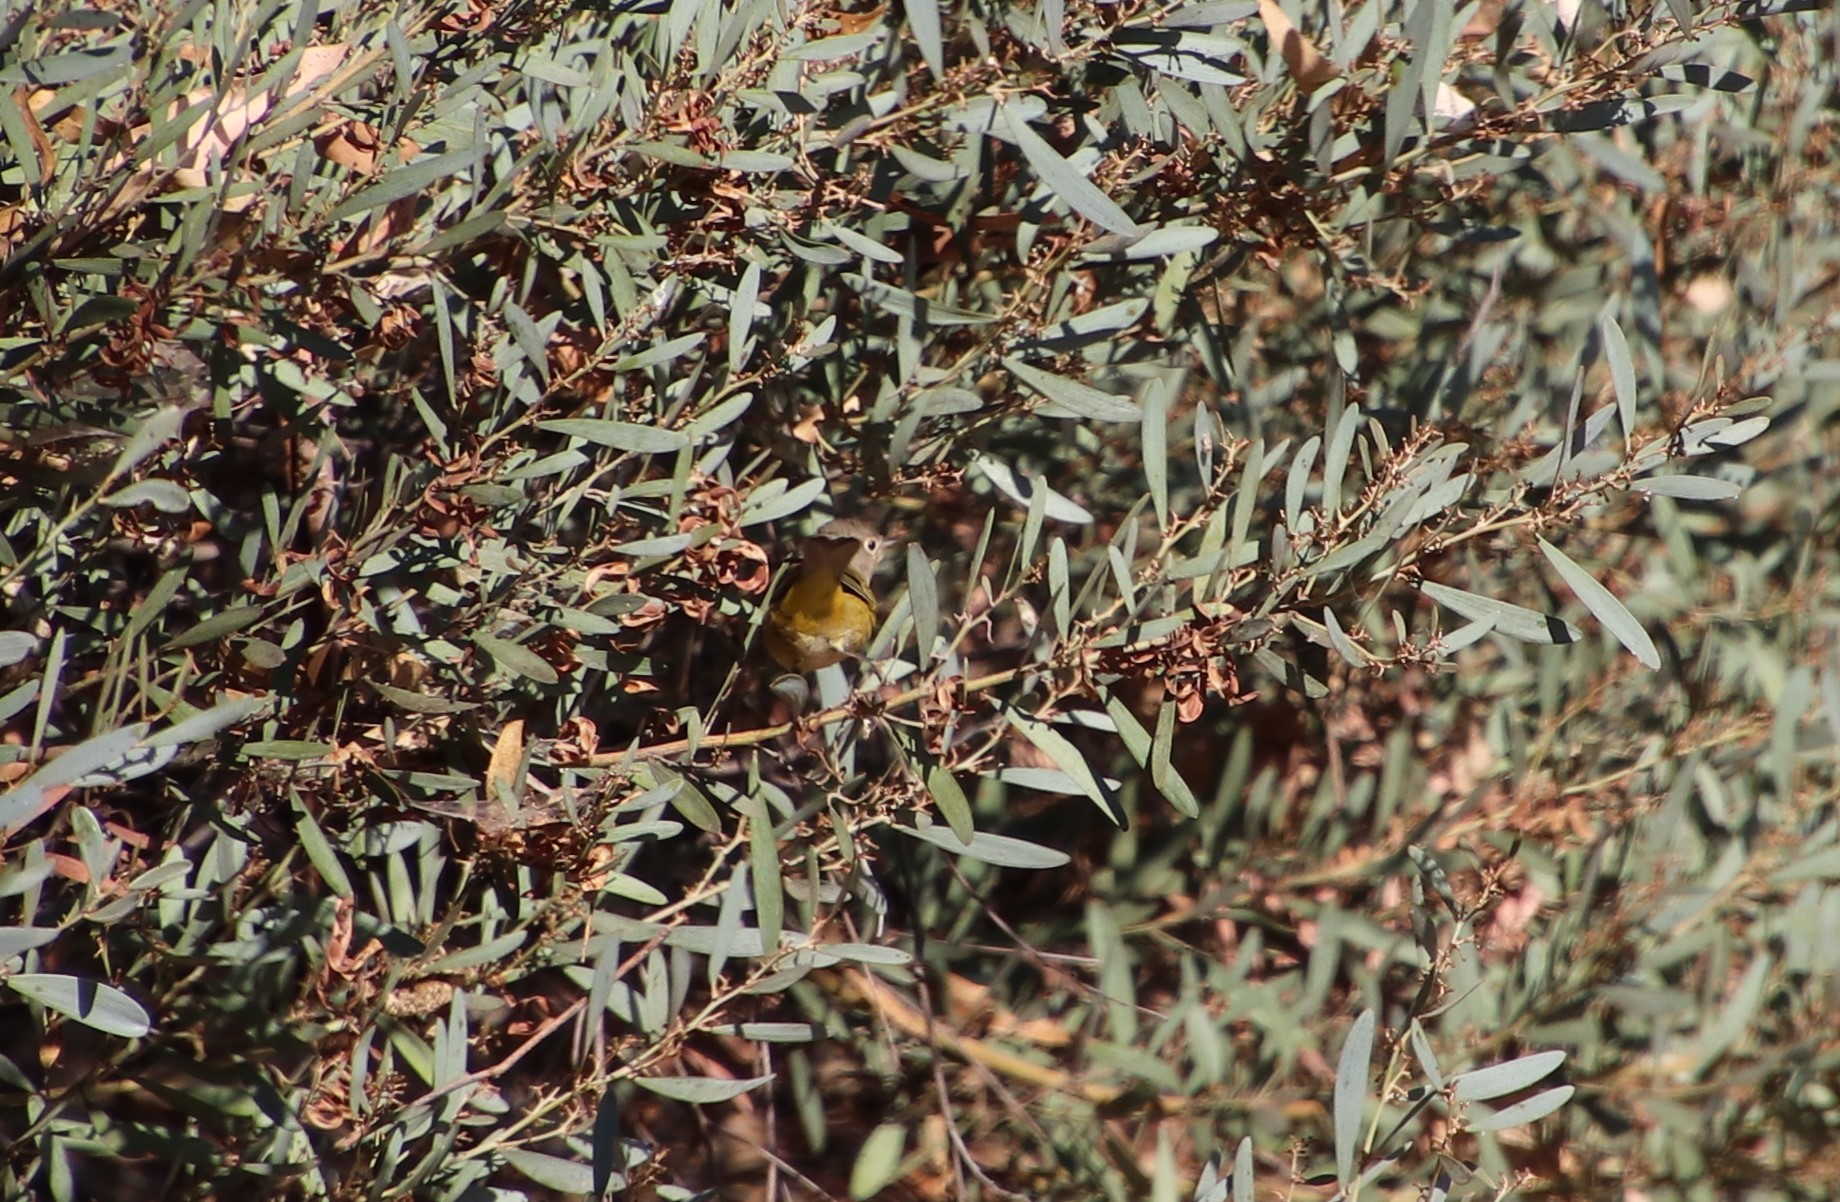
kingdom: Animalia
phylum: Chordata
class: Aves
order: Passeriformes
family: Parulidae
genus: Leiothlypis
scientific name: Leiothlypis ruficapilla
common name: Nashville warbler
